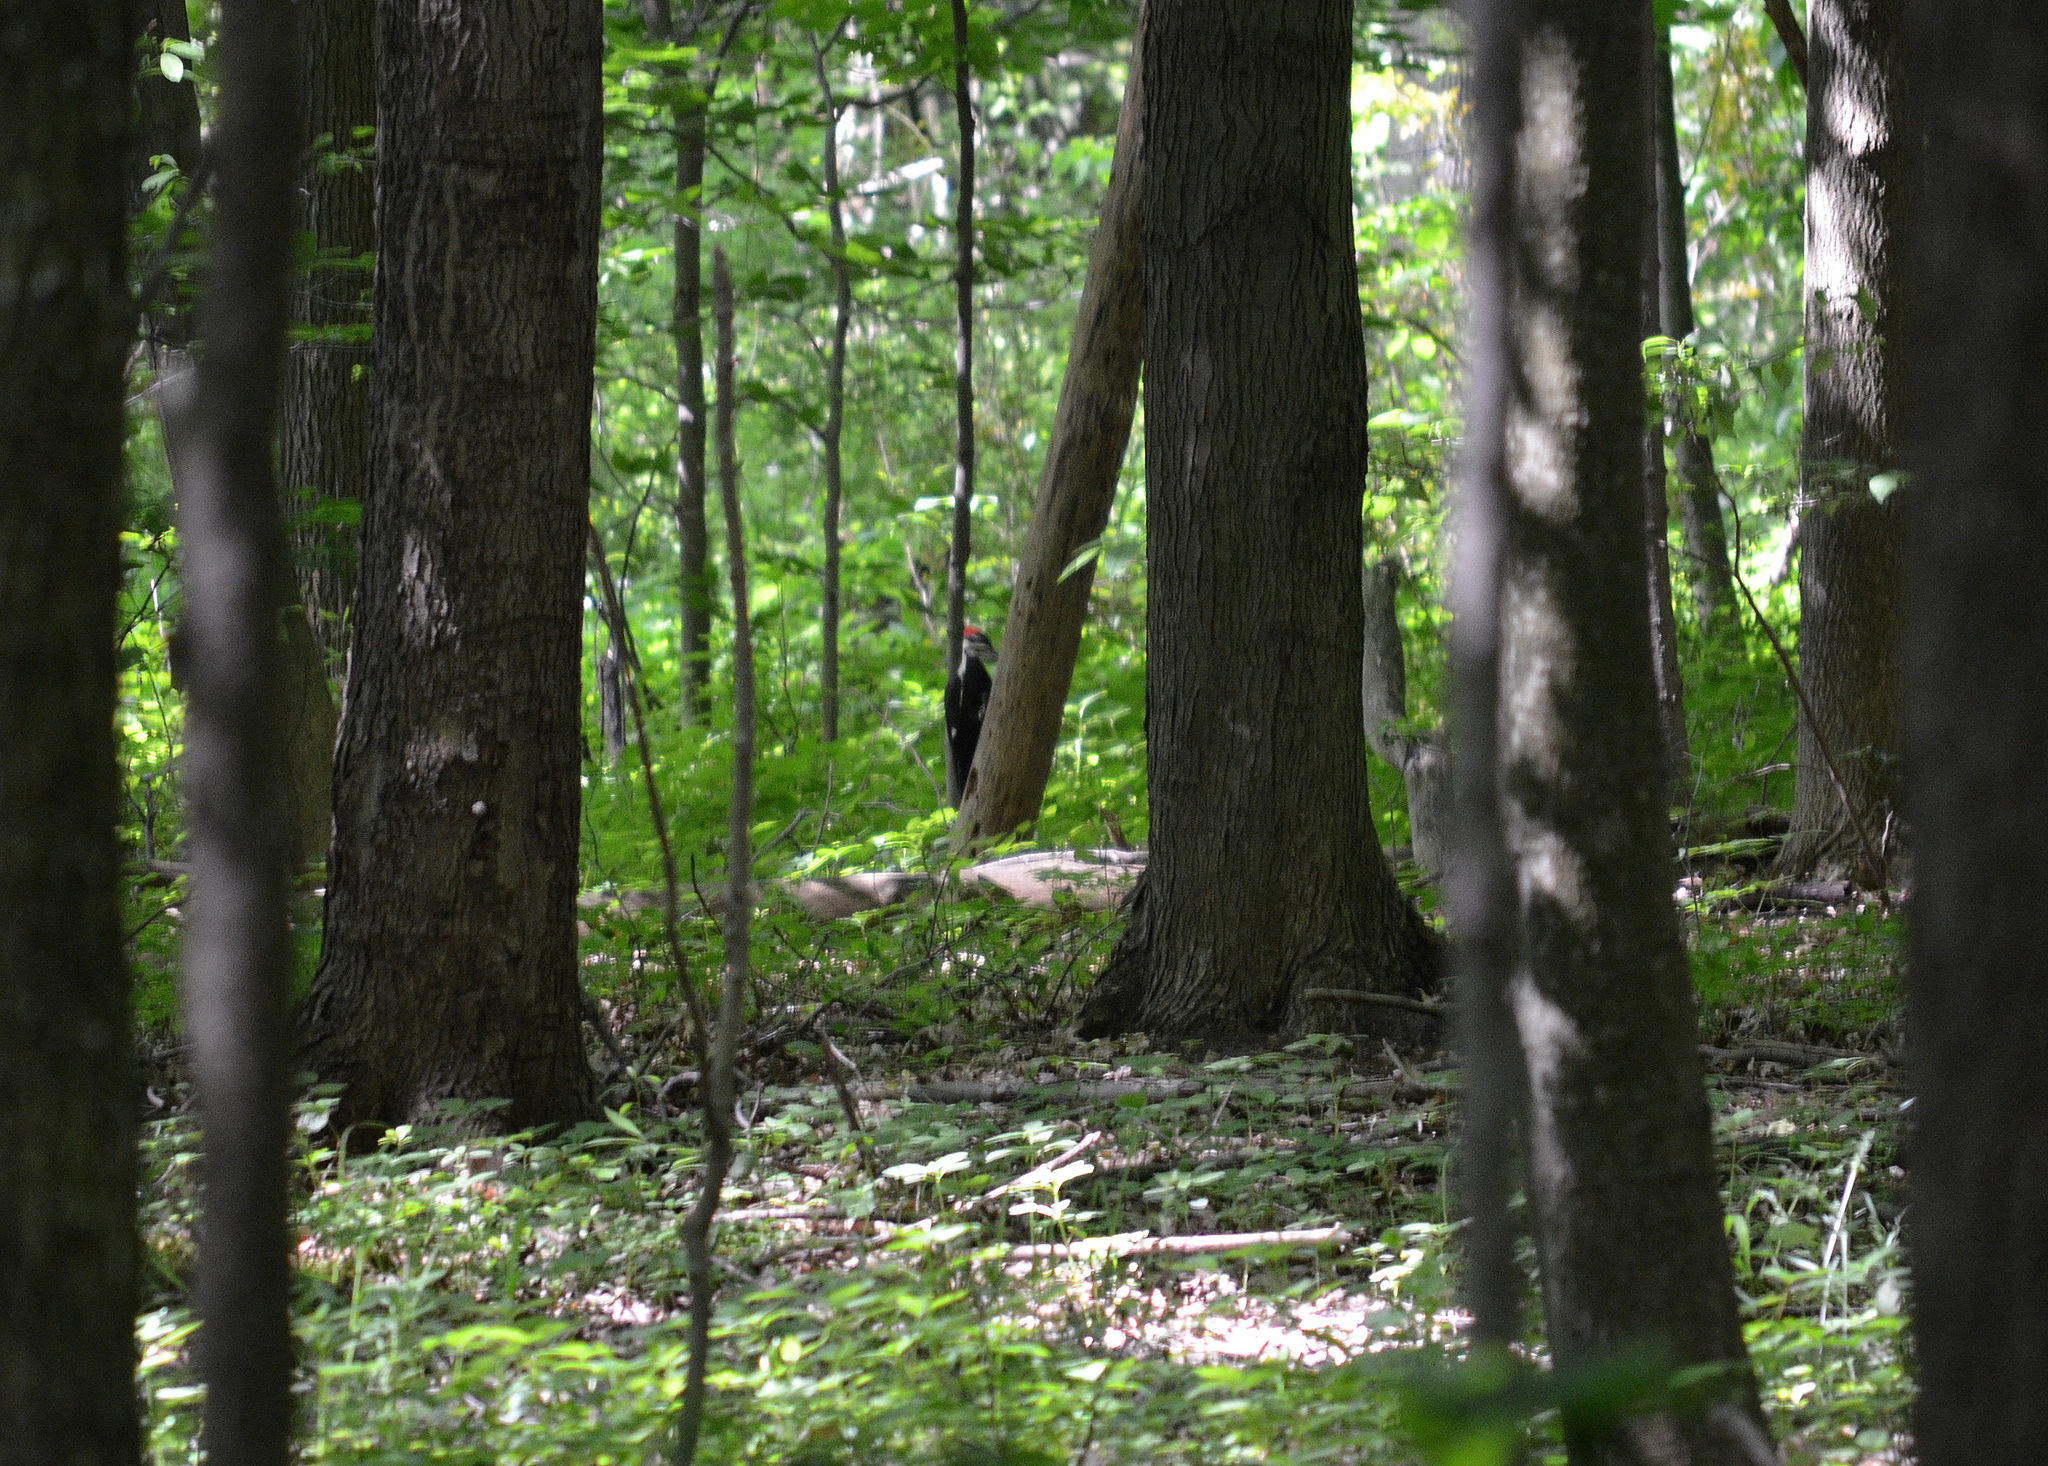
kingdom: Animalia
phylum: Chordata
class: Aves
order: Piciformes
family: Picidae
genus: Dryocopus
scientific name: Dryocopus pileatus
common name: Pileated woodpecker
